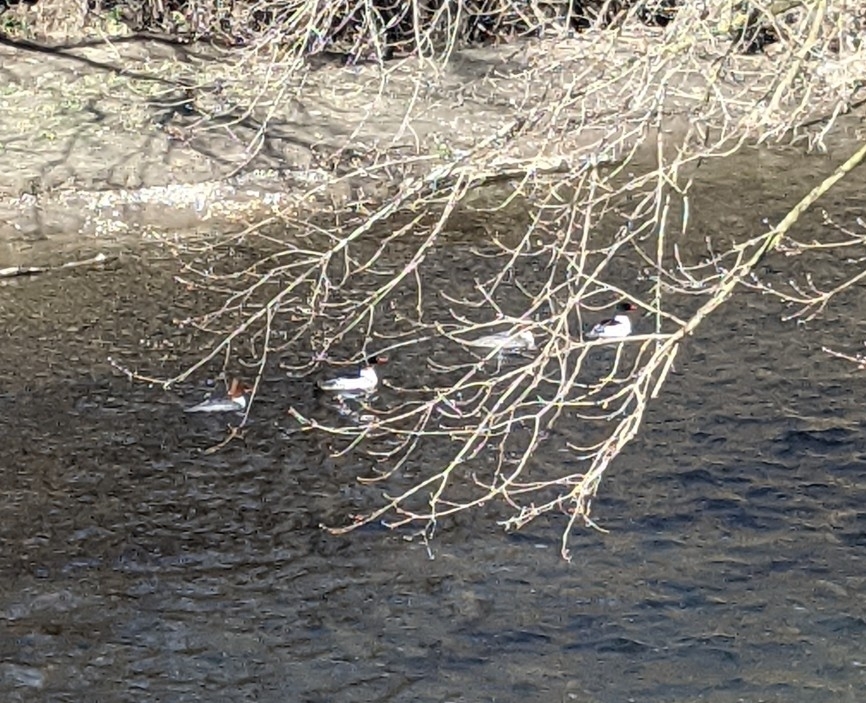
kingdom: Animalia
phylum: Chordata
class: Aves
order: Anseriformes
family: Anatidae
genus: Mergus
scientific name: Mergus merganser
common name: Common merganser
